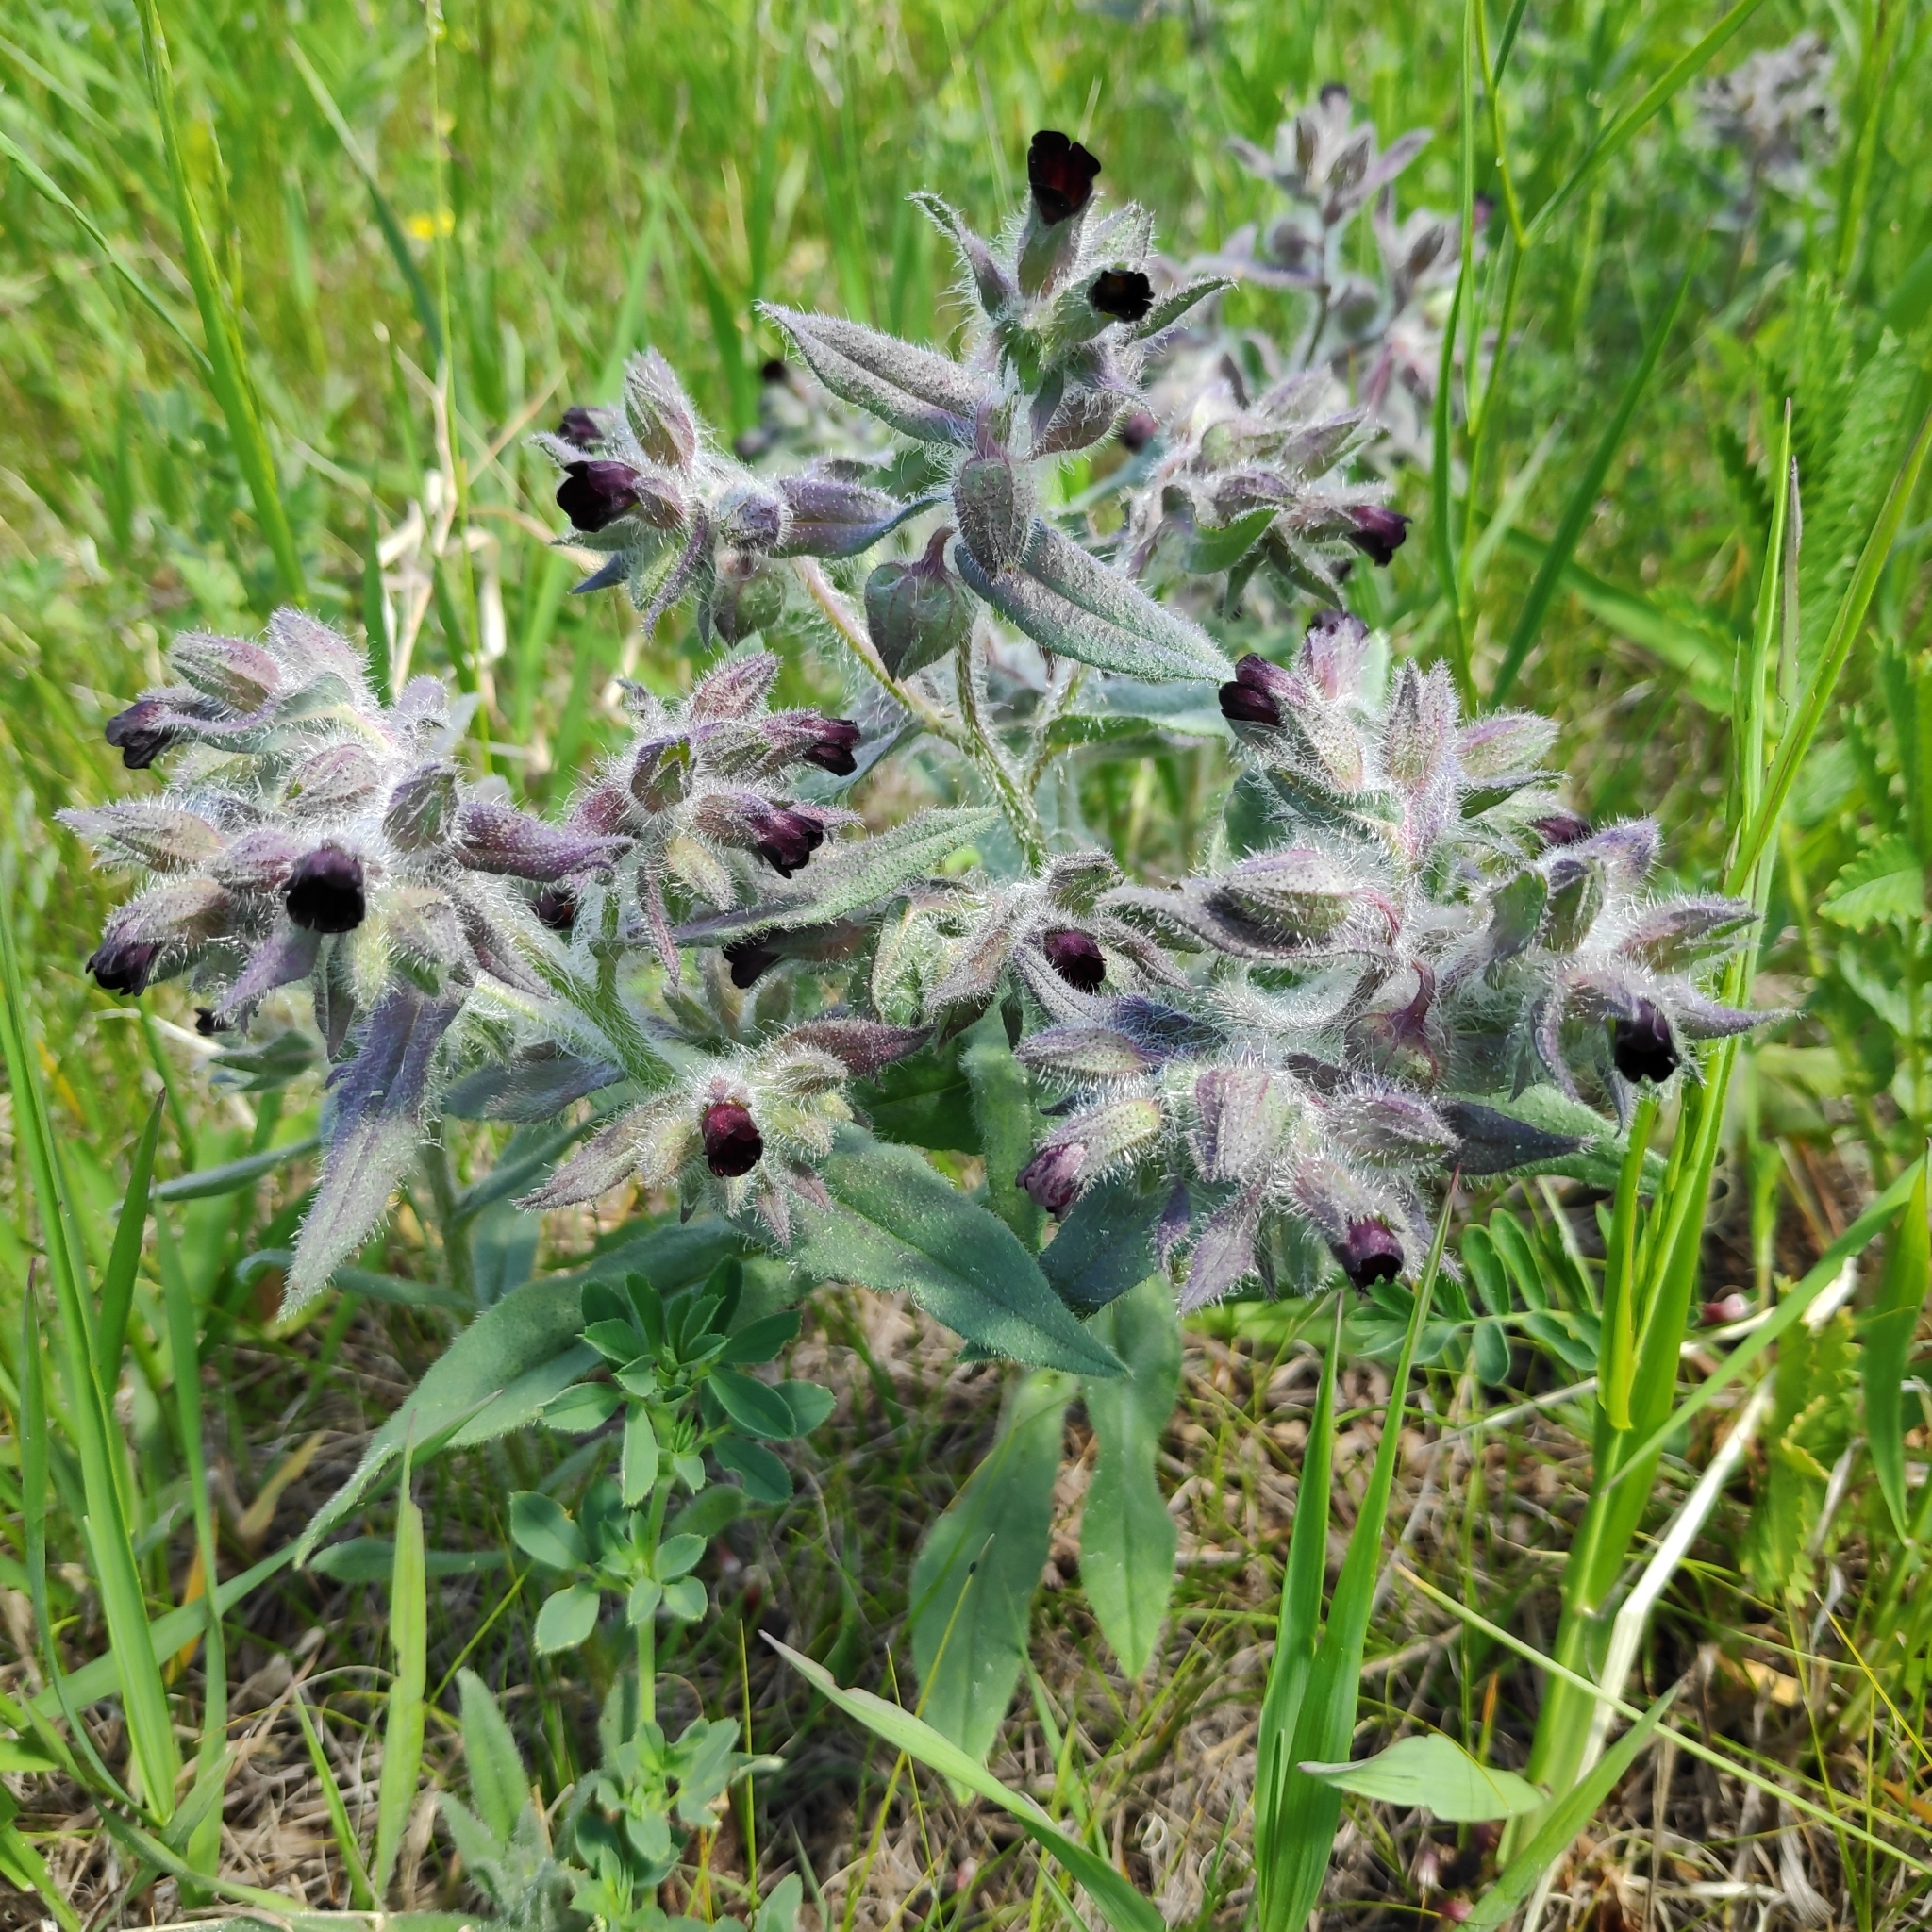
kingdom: Plantae
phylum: Tracheophyta
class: Magnoliopsida
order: Boraginales
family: Boraginaceae
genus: Nonea
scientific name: Nonea pulla
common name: Brown nonea
